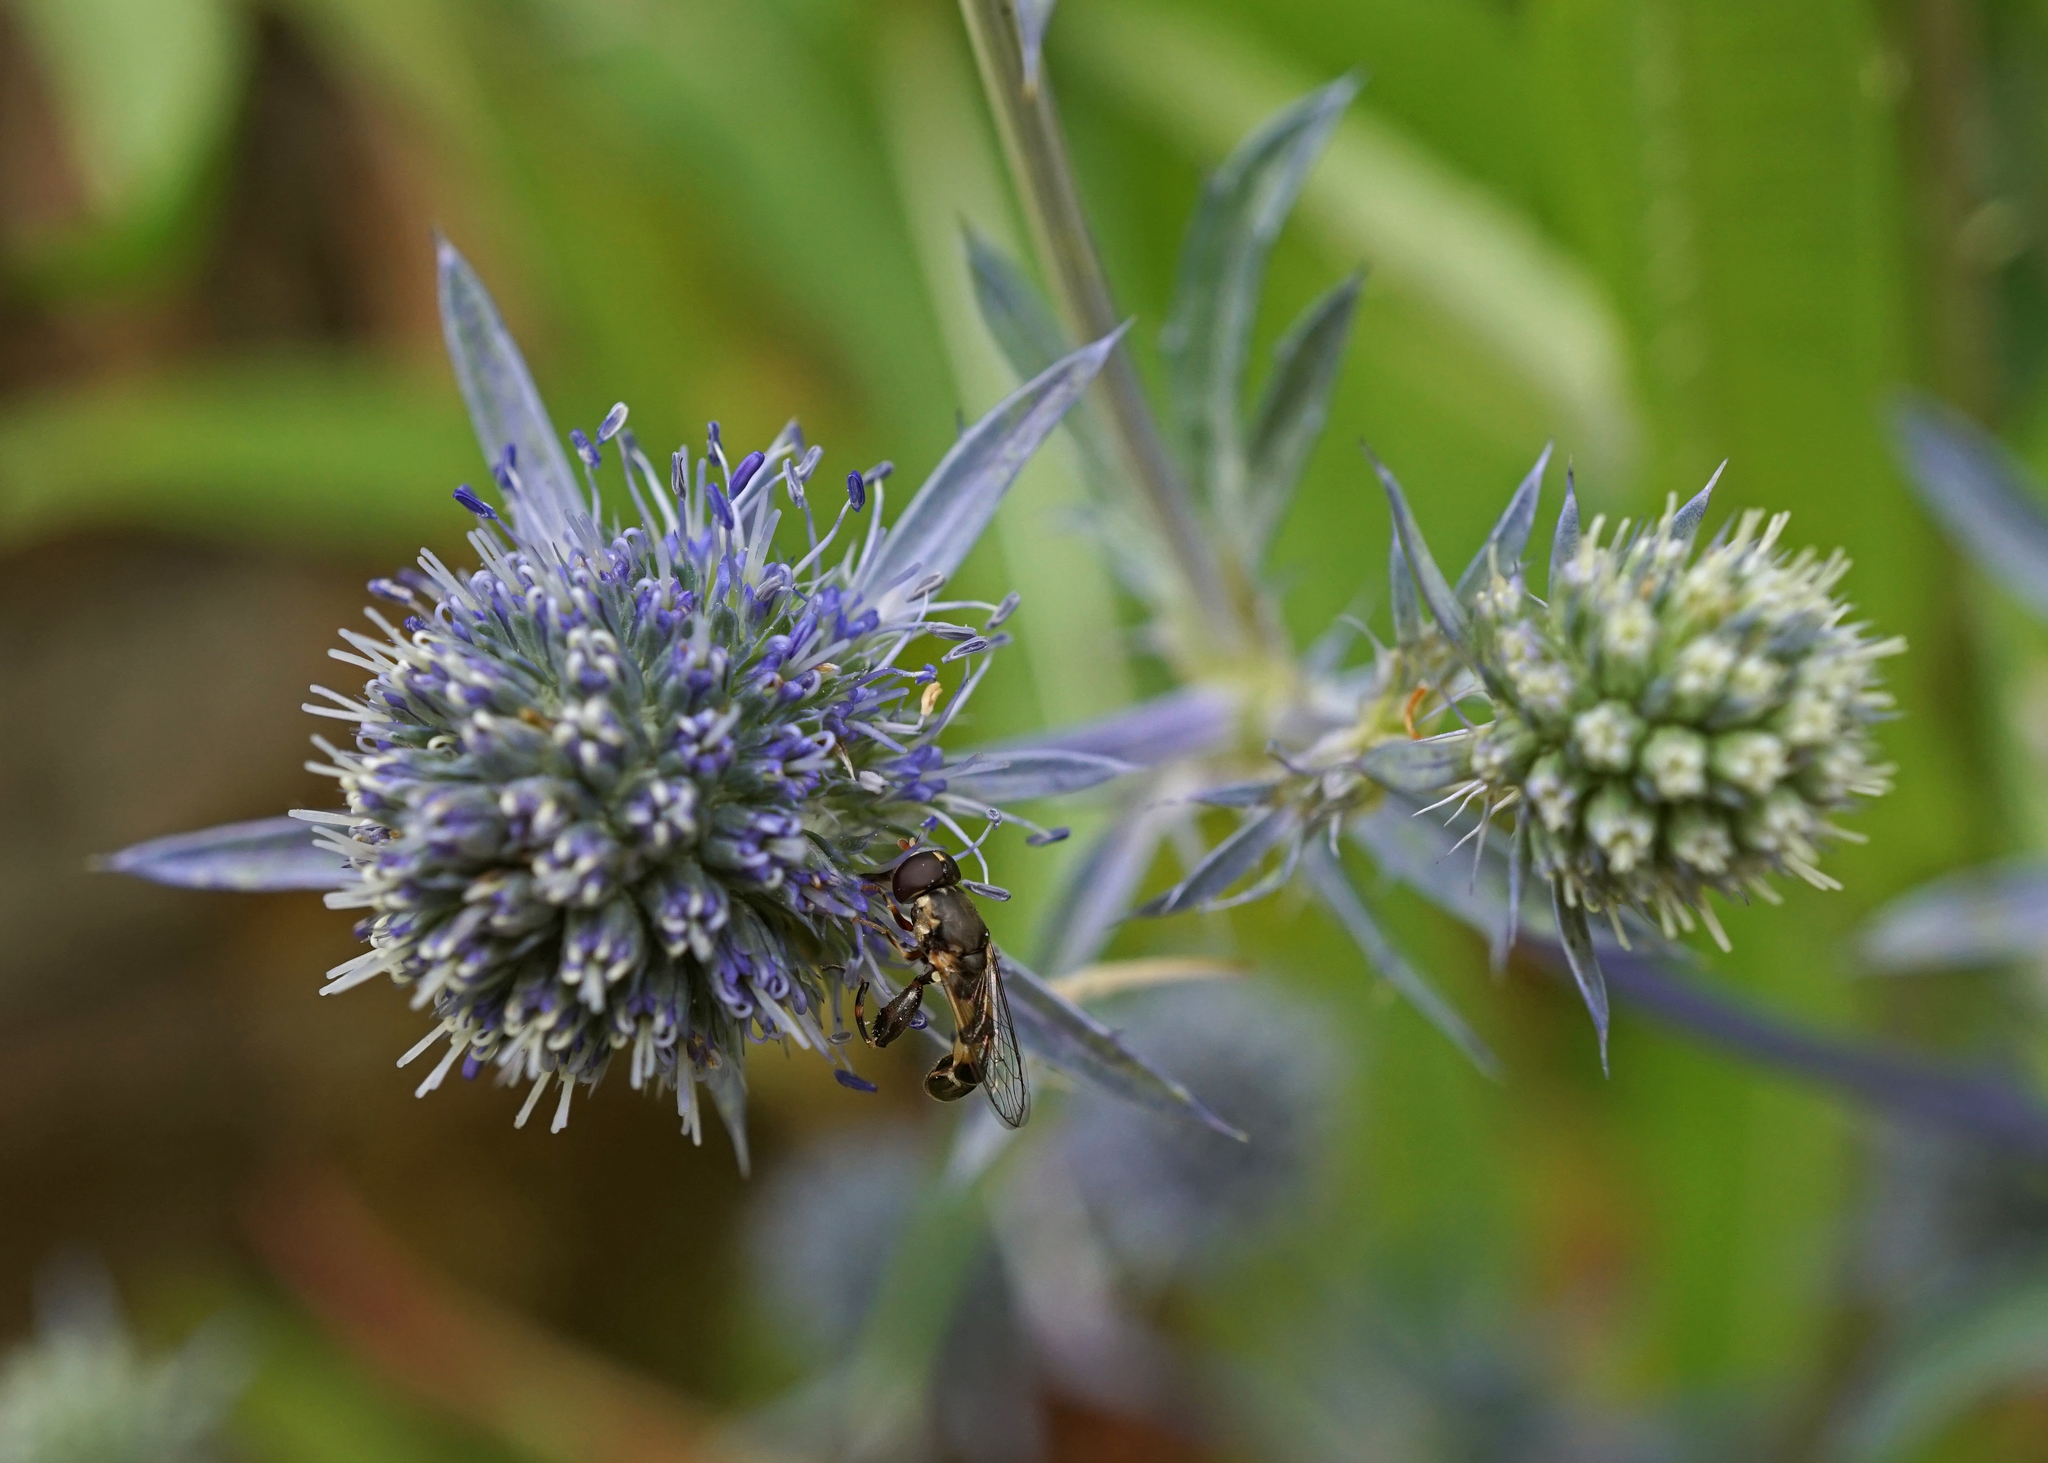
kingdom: Animalia
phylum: Arthropoda
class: Insecta
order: Diptera
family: Syrphidae
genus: Syritta
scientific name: Syritta pipiens
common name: Hover fly
